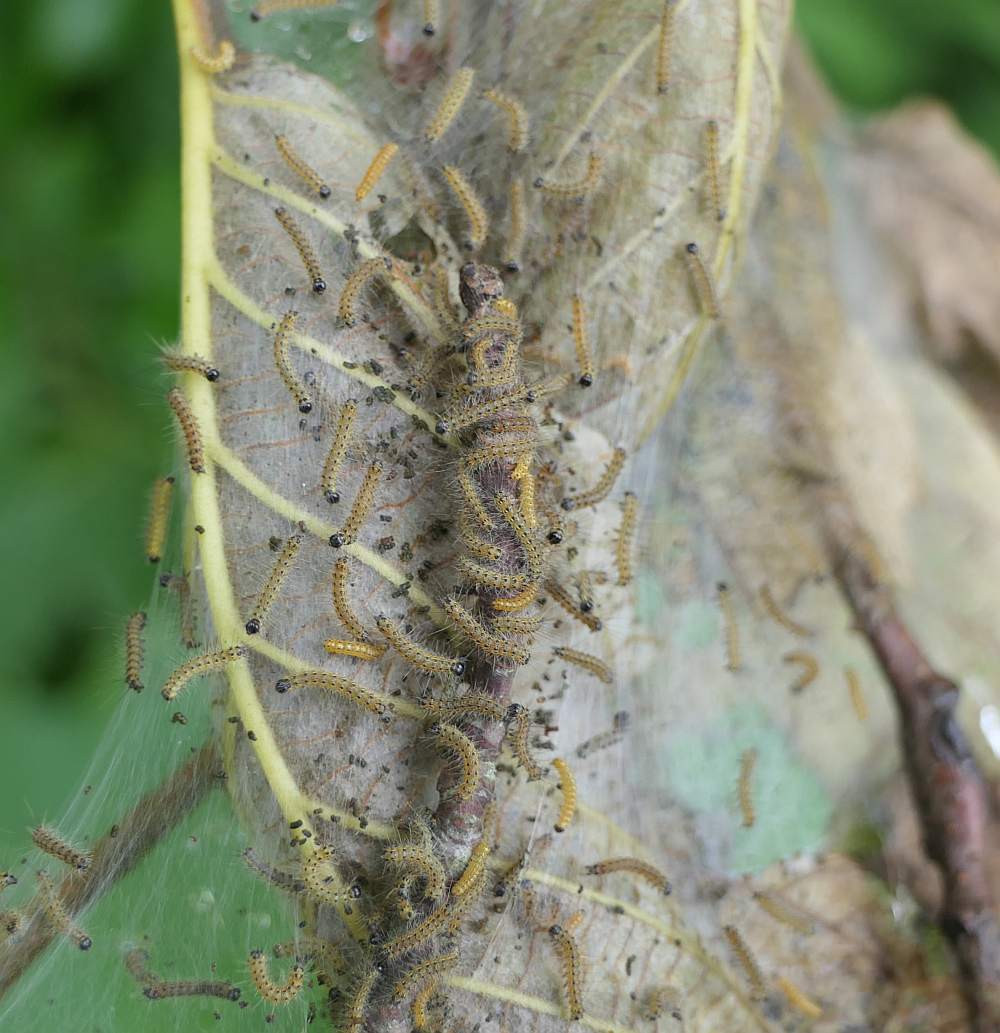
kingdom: Animalia
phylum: Arthropoda
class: Insecta
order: Lepidoptera
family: Erebidae
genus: Hyphantria
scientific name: Hyphantria cunea
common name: American white moth
